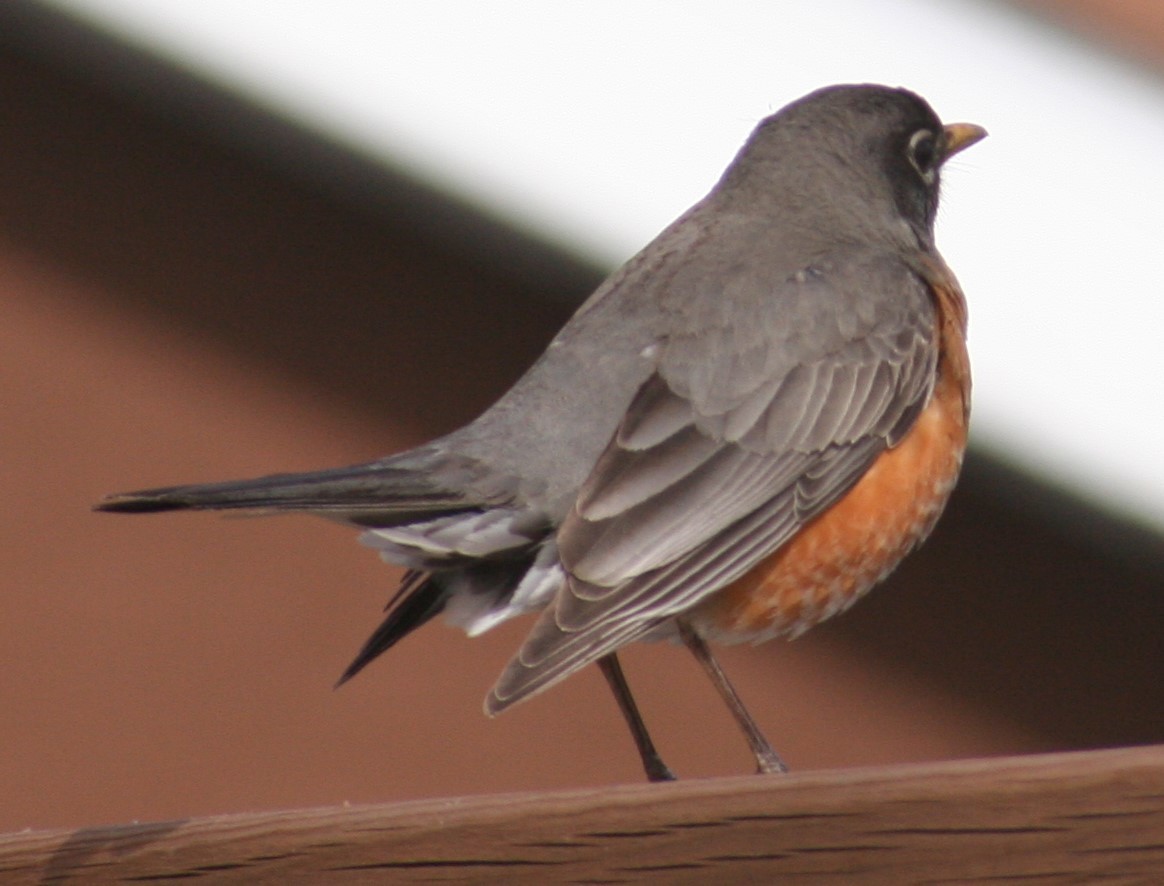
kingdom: Animalia
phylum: Chordata
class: Aves
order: Passeriformes
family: Turdidae
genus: Turdus
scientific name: Turdus migratorius
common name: American robin
